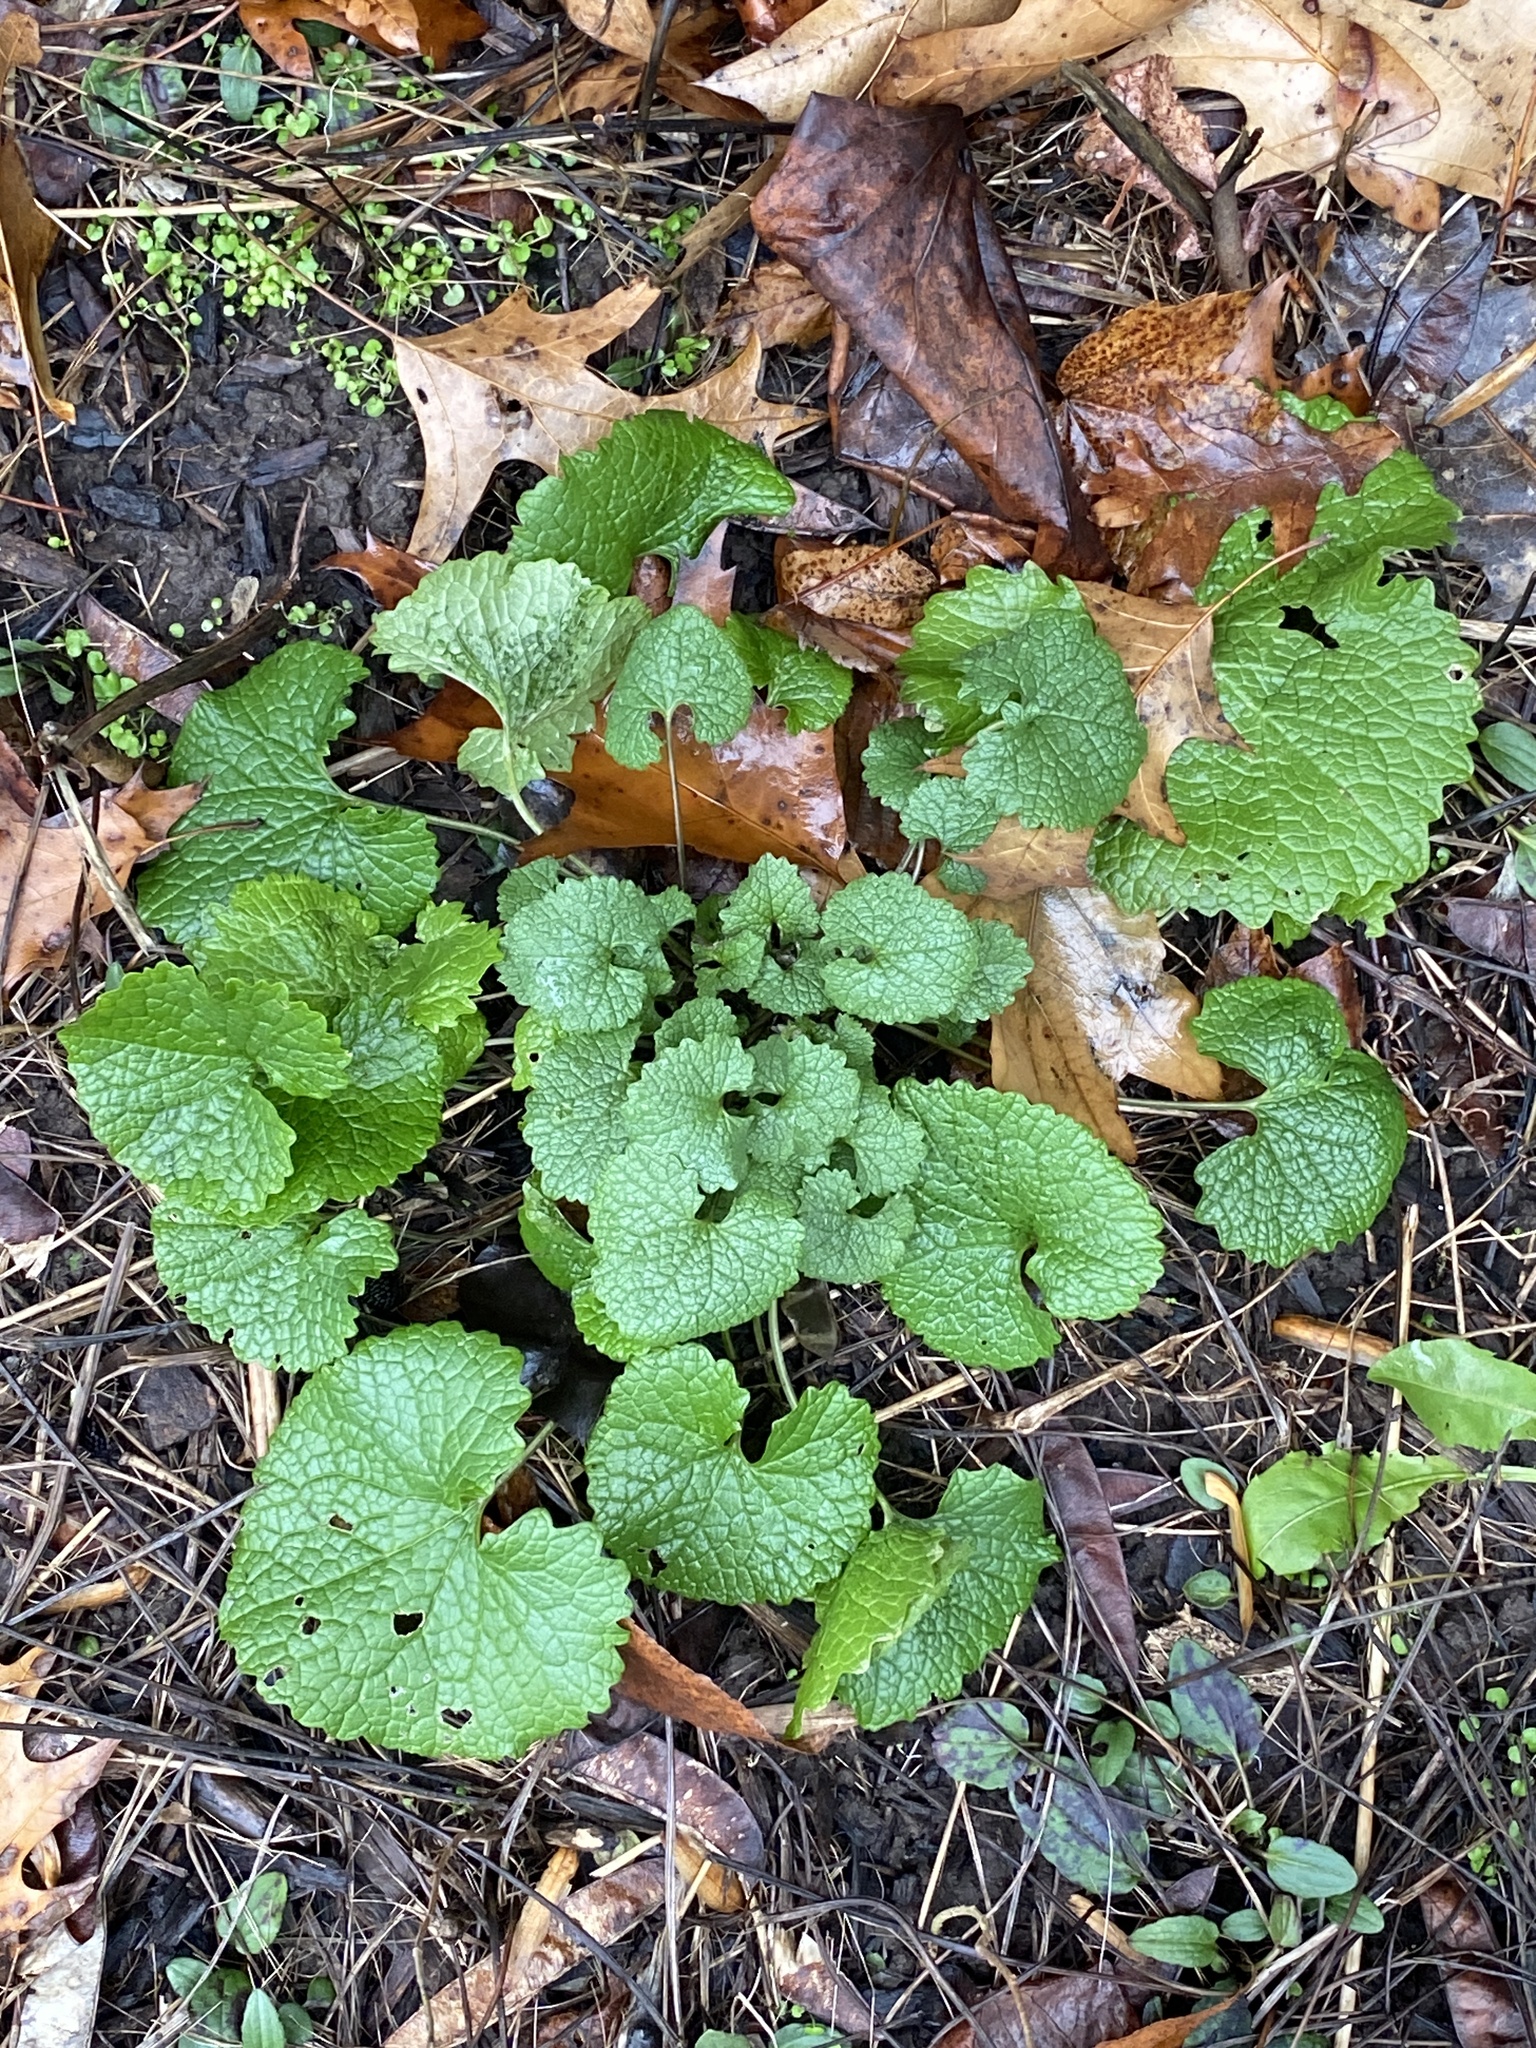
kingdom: Plantae
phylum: Tracheophyta
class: Magnoliopsida
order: Brassicales
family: Brassicaceae
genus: Alliaria
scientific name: Alliaria petiolata
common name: Garlic mustard
